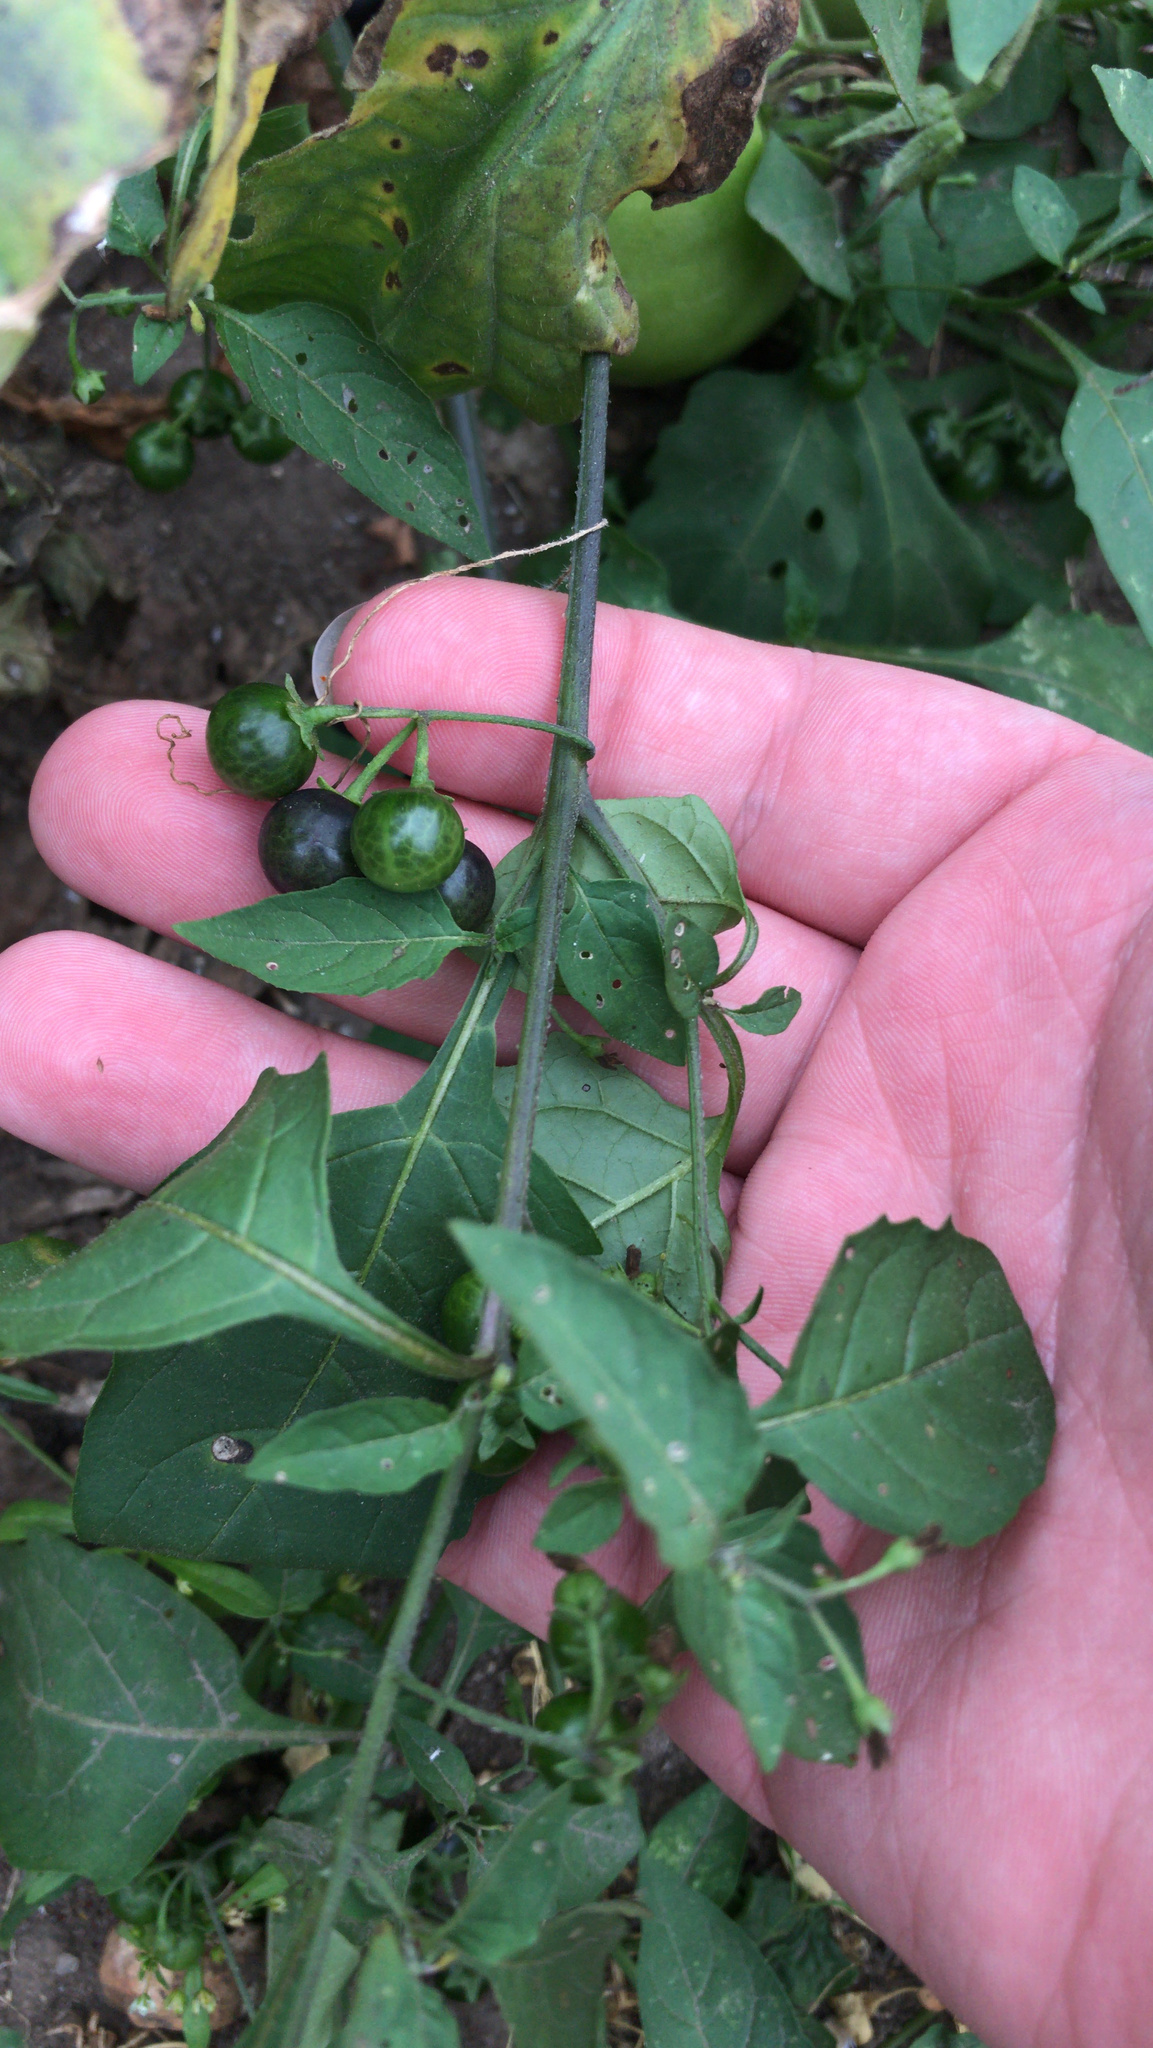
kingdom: Plantae
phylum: Tracheophyta
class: Magnoliopsida
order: Solanales
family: Solanaceae
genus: Solanum
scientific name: Solanum emulans
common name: Eastern black nightshade
